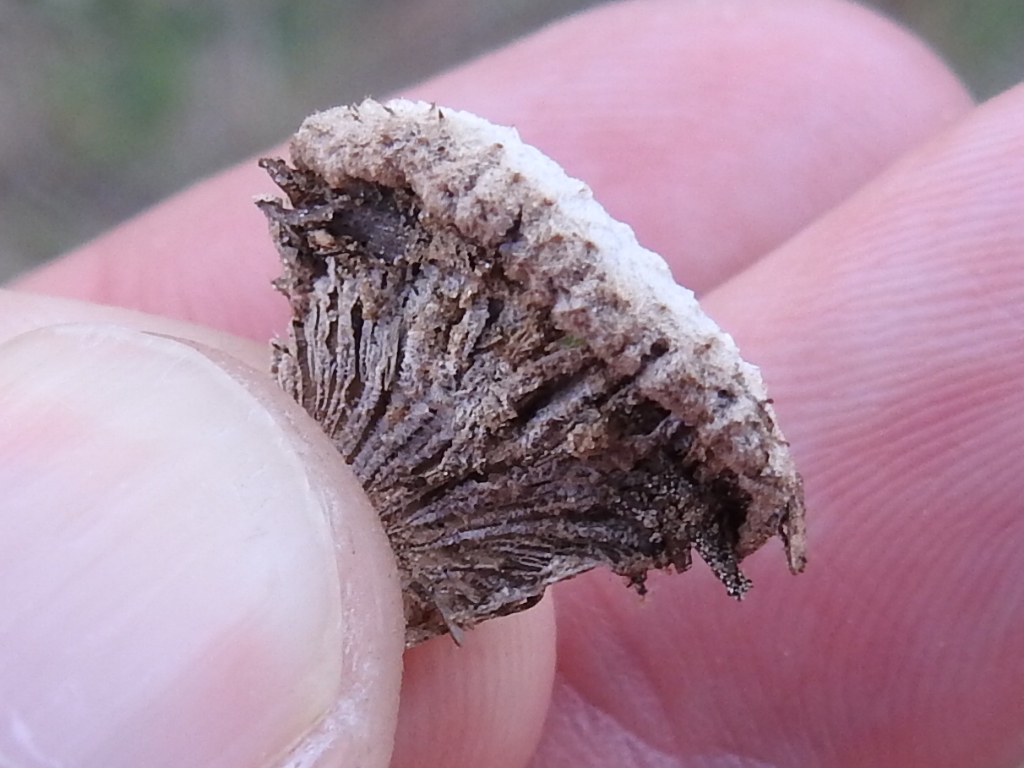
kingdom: Fungi
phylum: Basidiomycota
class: Agaricomycetes
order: Agaricales
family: Schizophyllaceae
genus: Schizophyllum
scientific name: Schizophyllum commune
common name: Common porecrust
